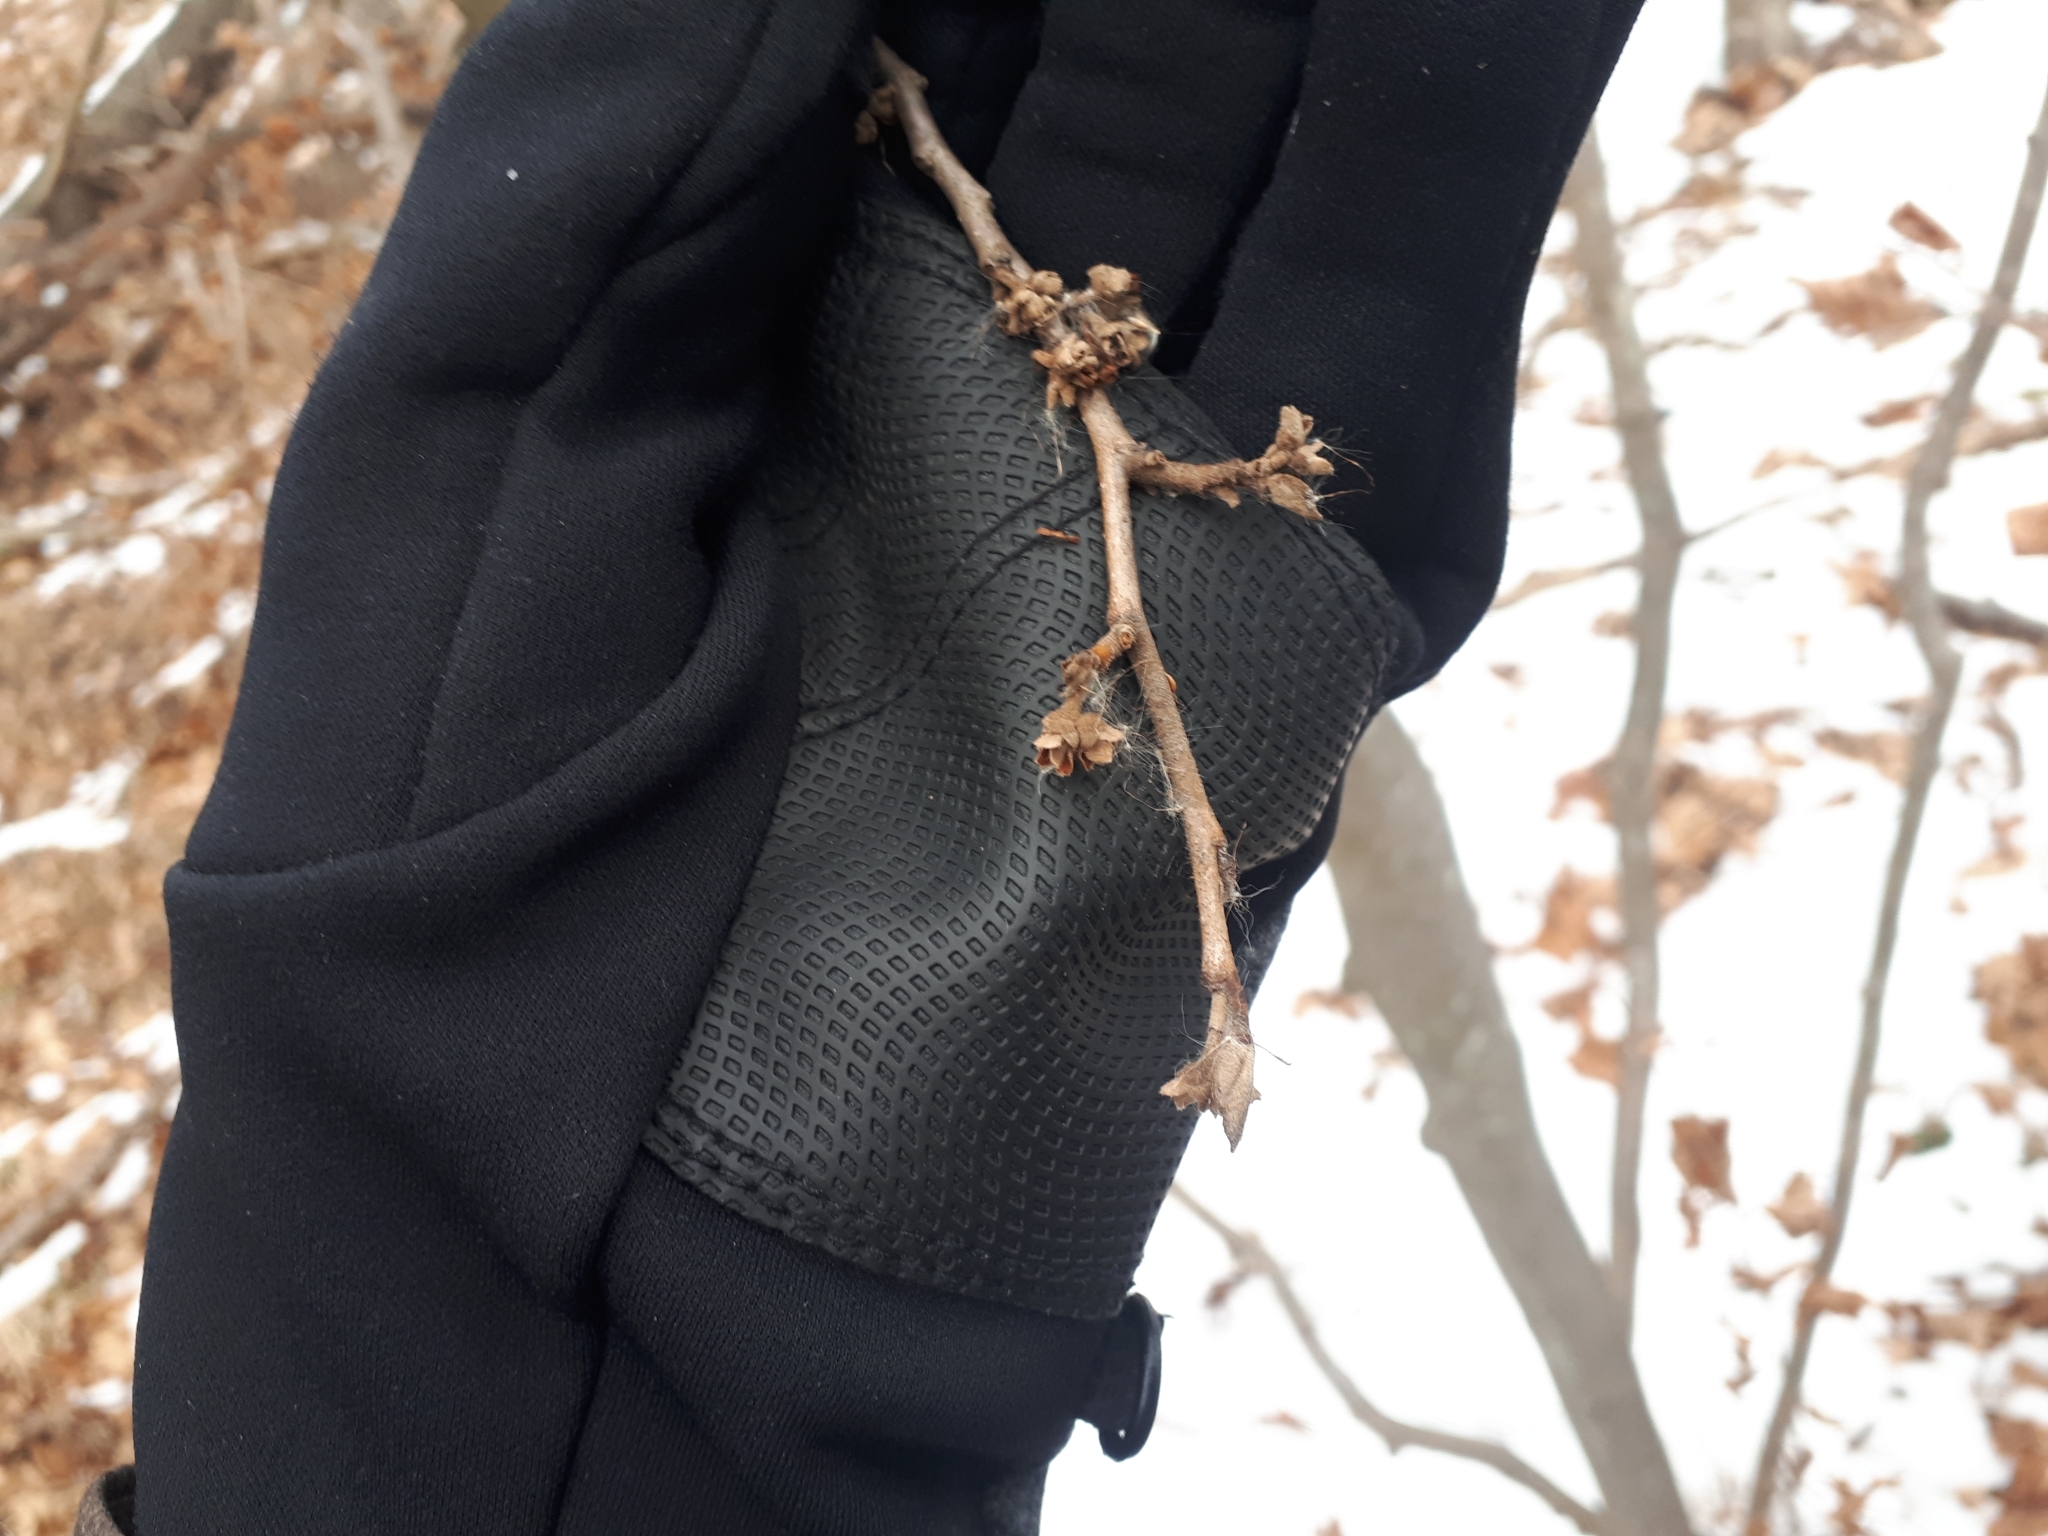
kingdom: Plantae
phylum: Tracheophyta
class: Magnoliopsida
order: Saxifragales
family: Hamamelidaceae
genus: Hamamelis
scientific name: Hamamelis virginiana
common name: Witch-hazel
